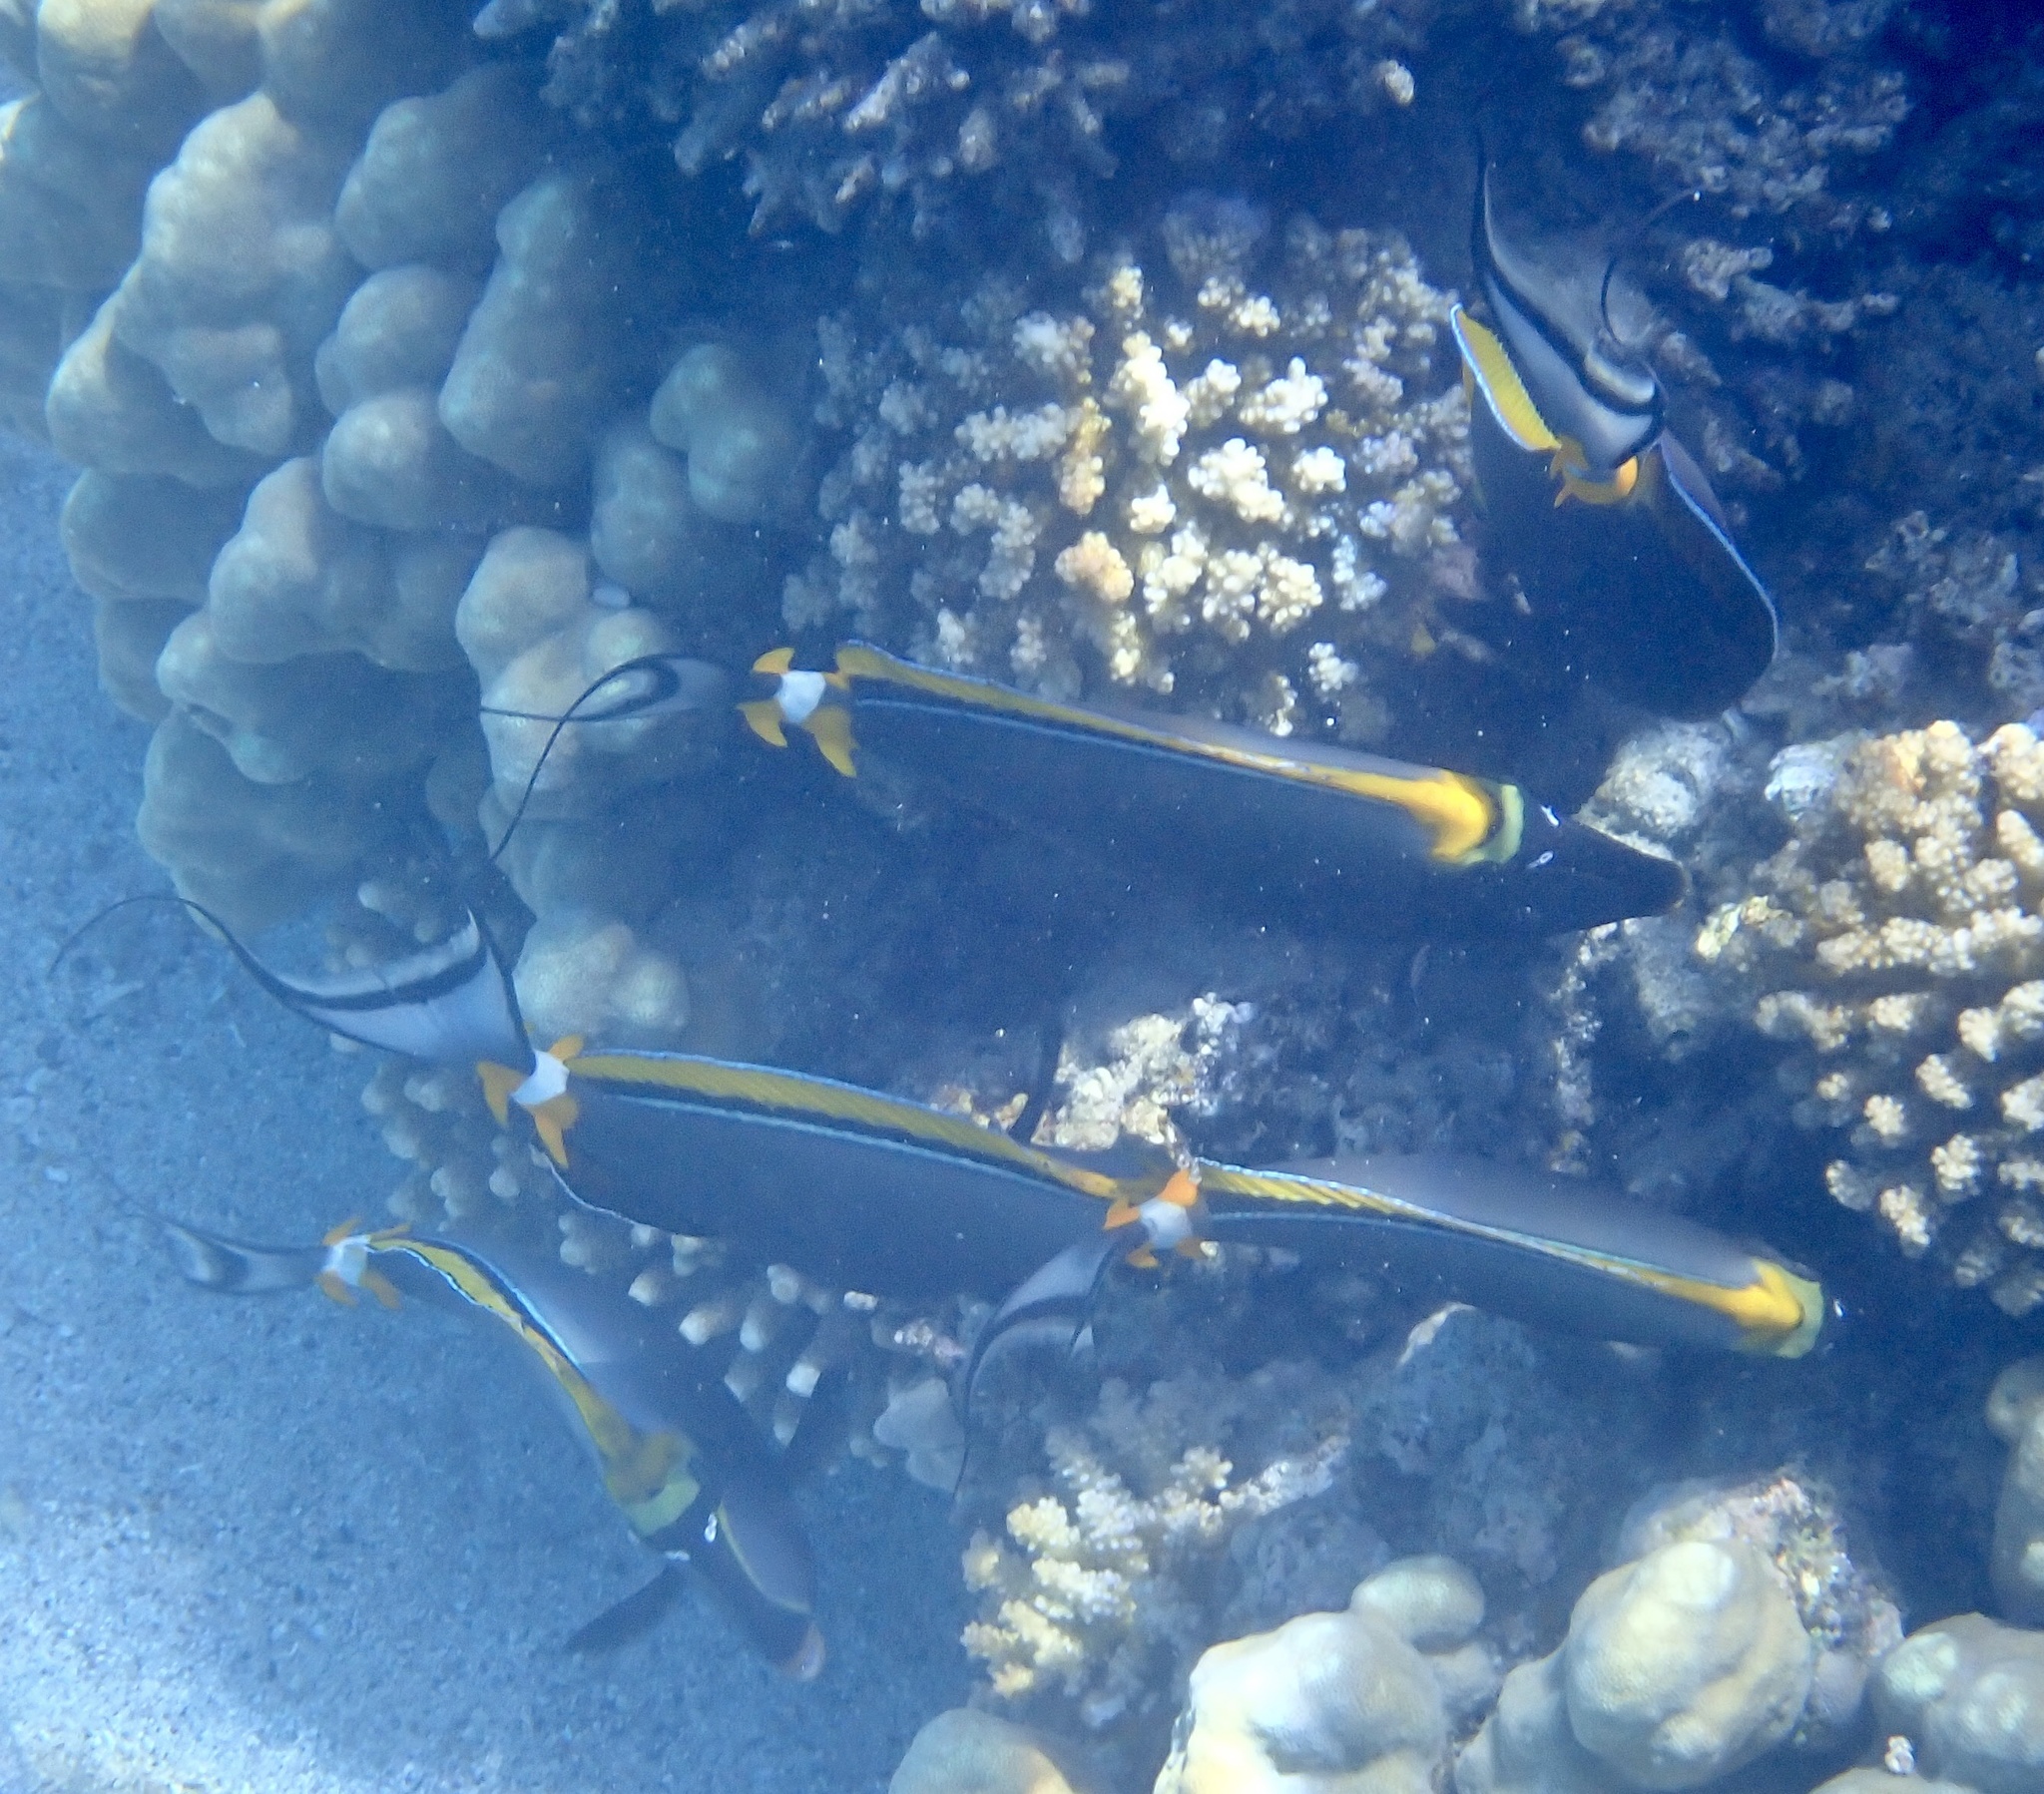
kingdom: Animalia
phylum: Chordata
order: Perciformes
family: Acanthuridae
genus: Naso
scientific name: Naso elegans
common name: Orangespine unicornfish
